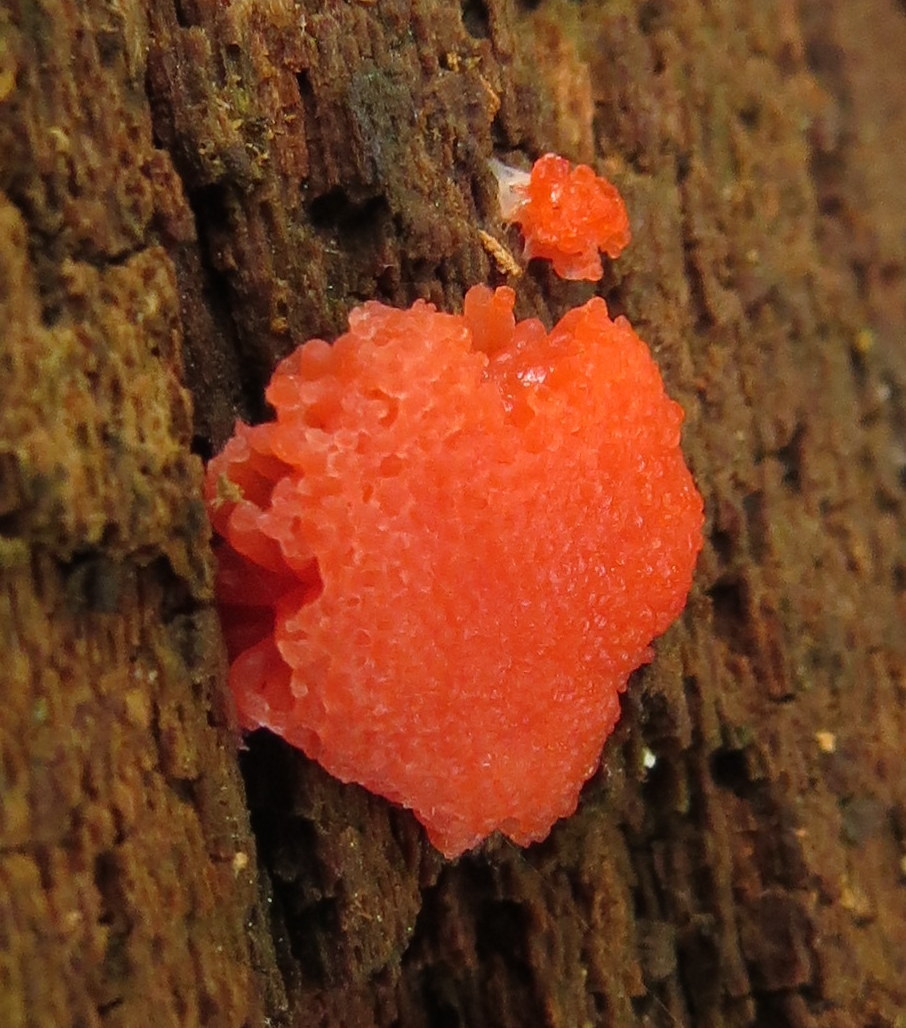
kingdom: Protozoa
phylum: Mycetozoa
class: Myxomycetes
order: Cribrariales
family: Tubiferaceae
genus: Tubifera
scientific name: Tubifera ferruginosa
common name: Red raspberry slime mold
